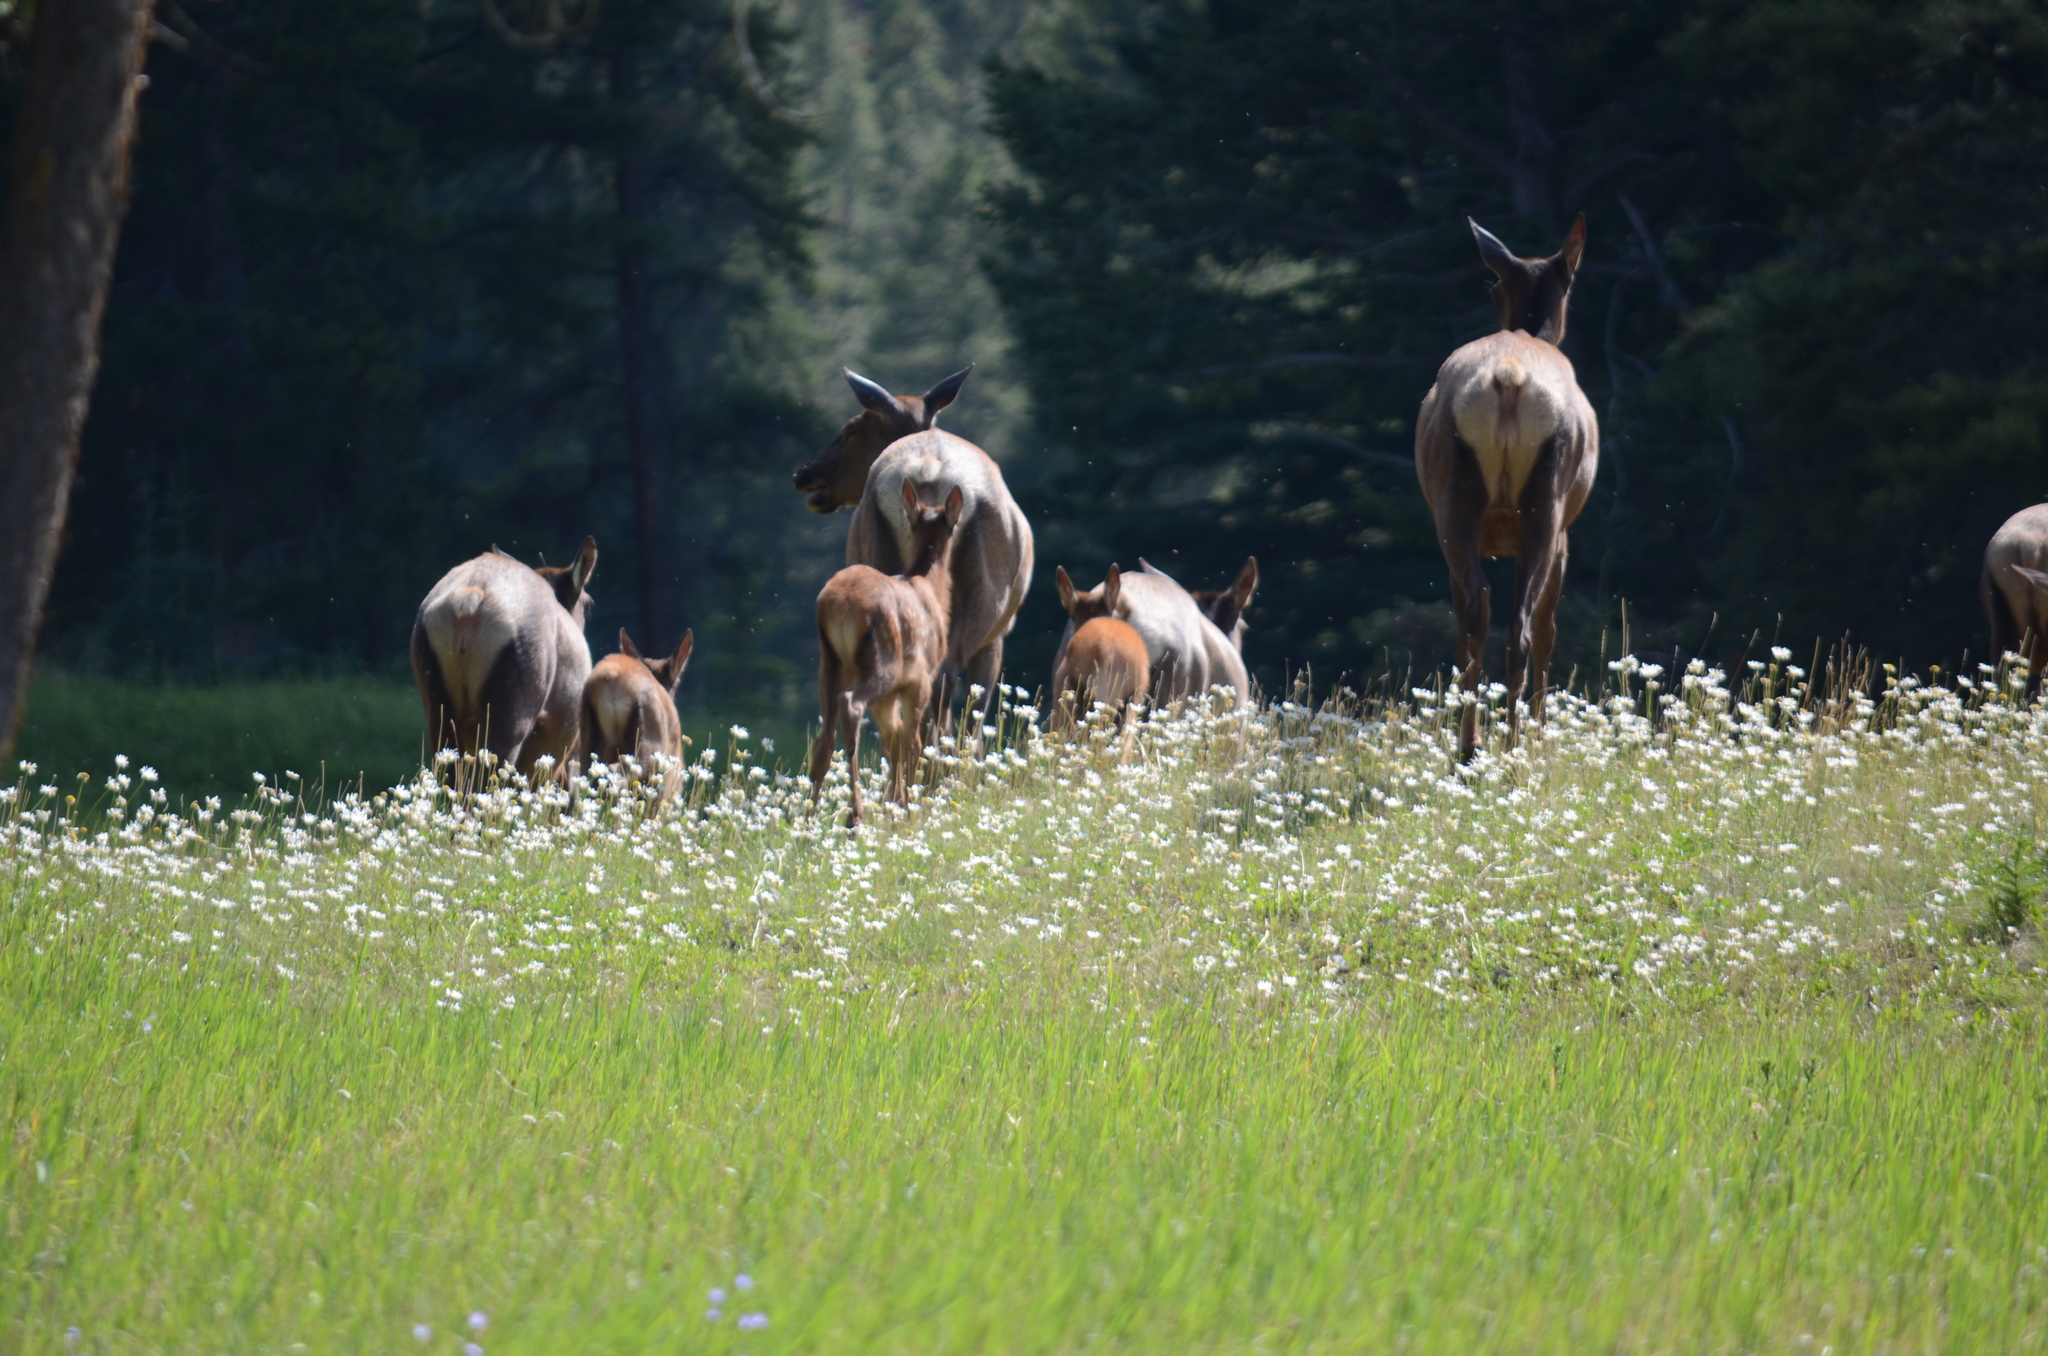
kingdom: Animalia
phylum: Chordata
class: Mammalia
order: Artiodactyla
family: Cervidae
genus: Cervus
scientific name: Cervus elaphus
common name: Red deer
